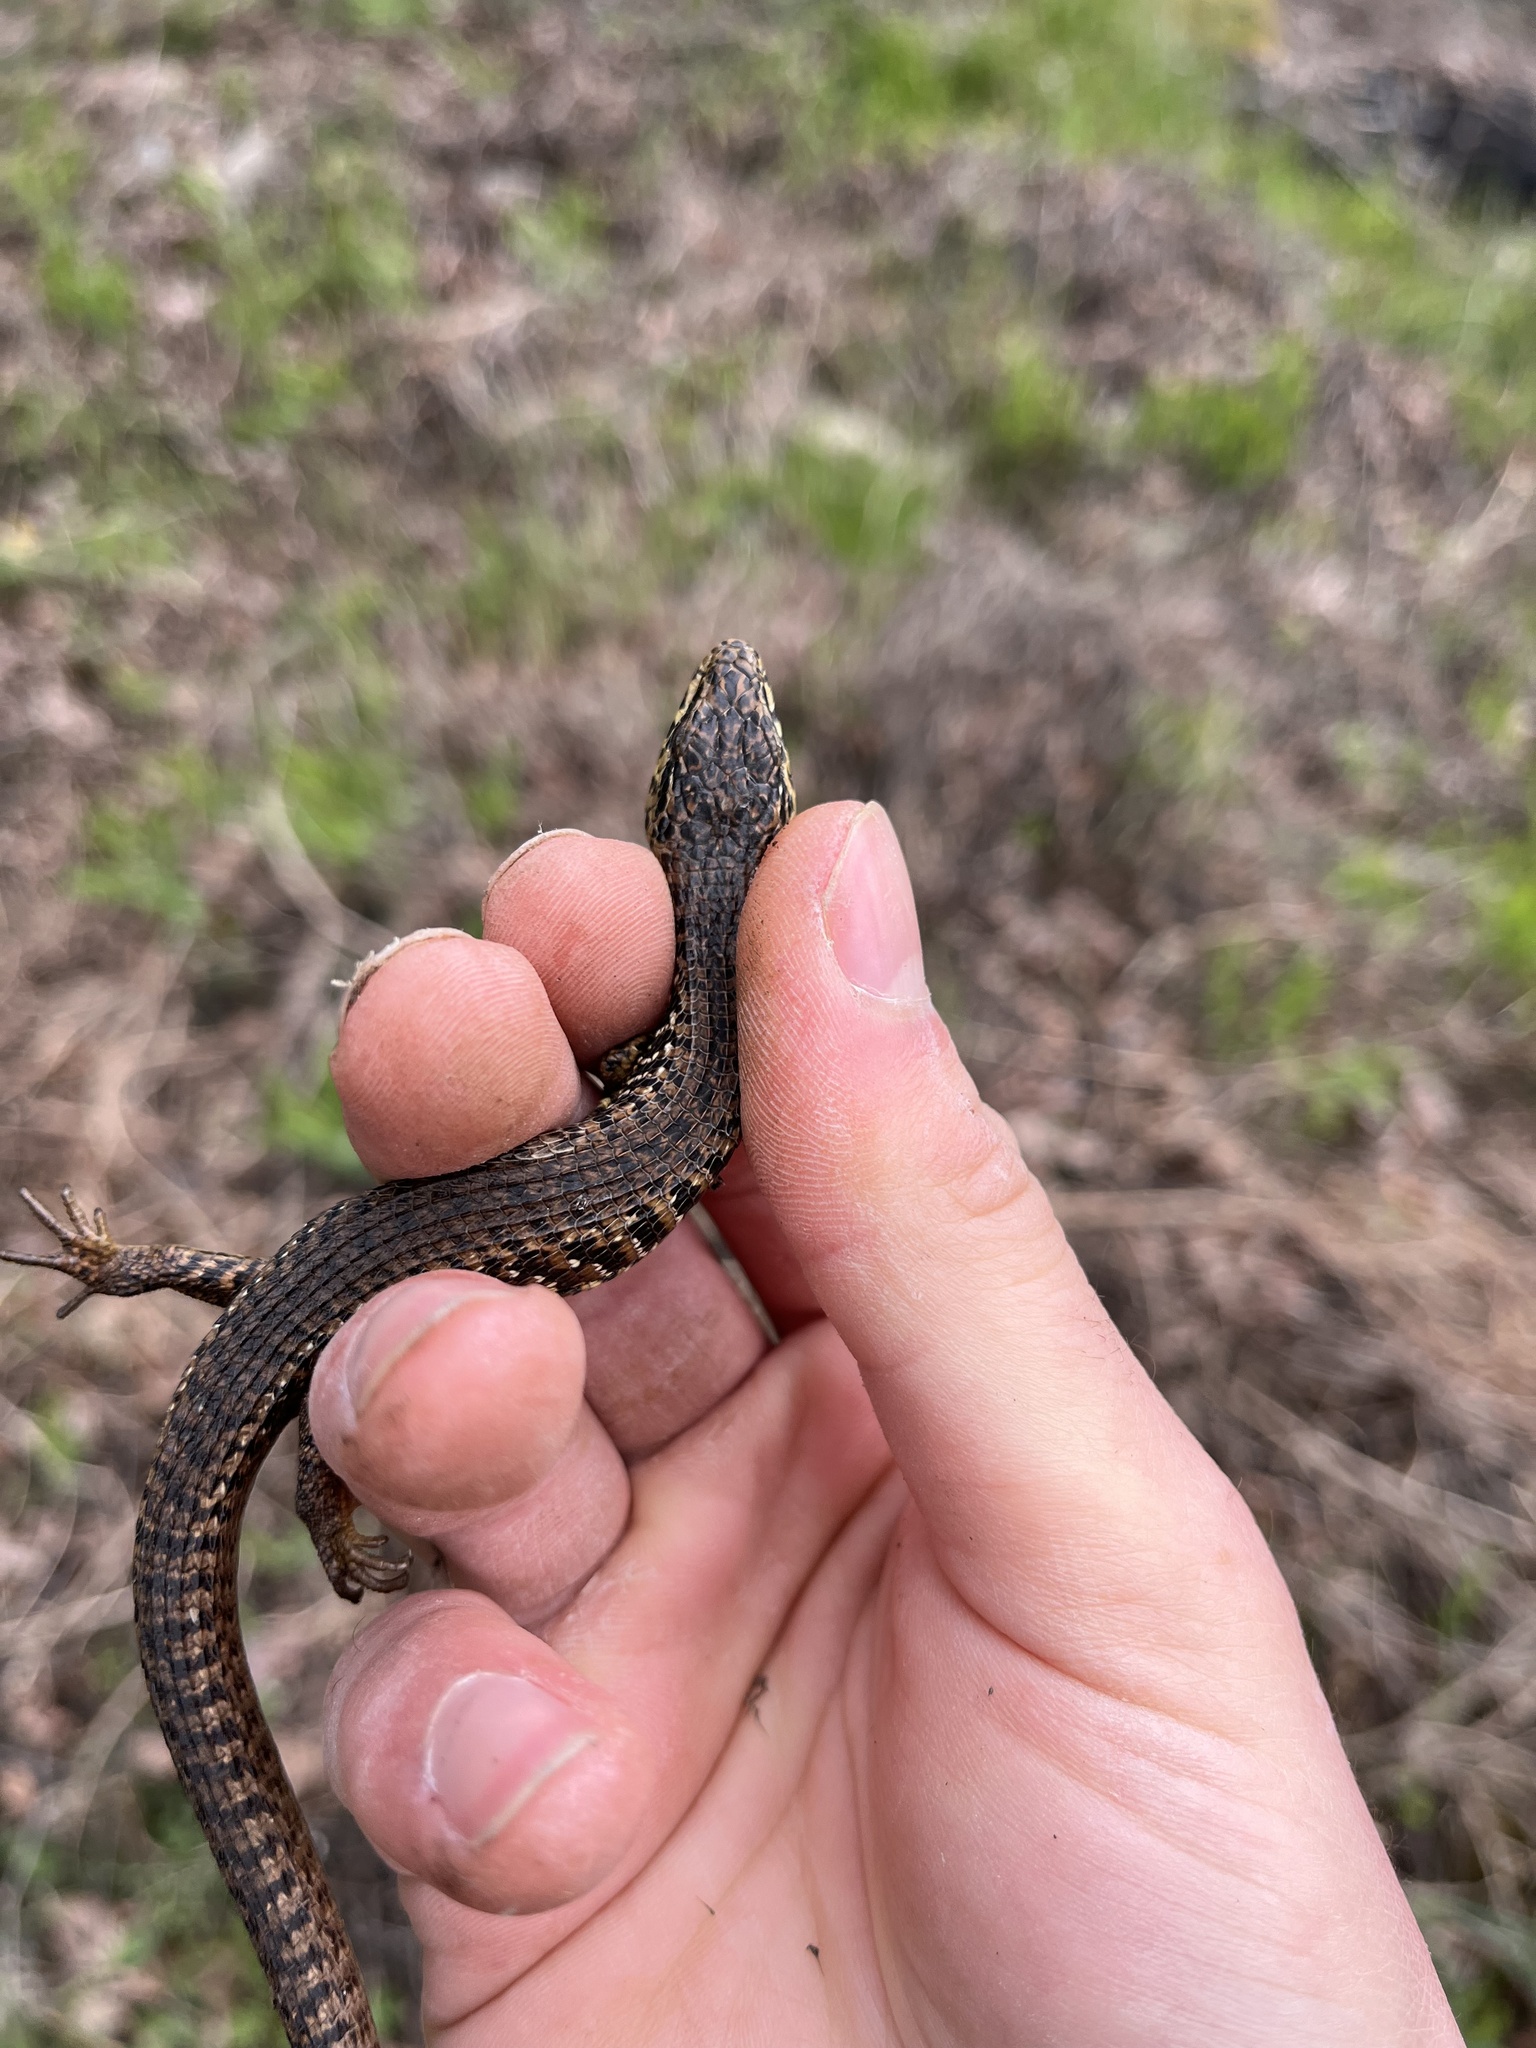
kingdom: Animalia
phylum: Chordata
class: Squamata
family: Anguidae
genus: Elgaria
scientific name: Elgaria coerulea
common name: Northern alligator lizard
